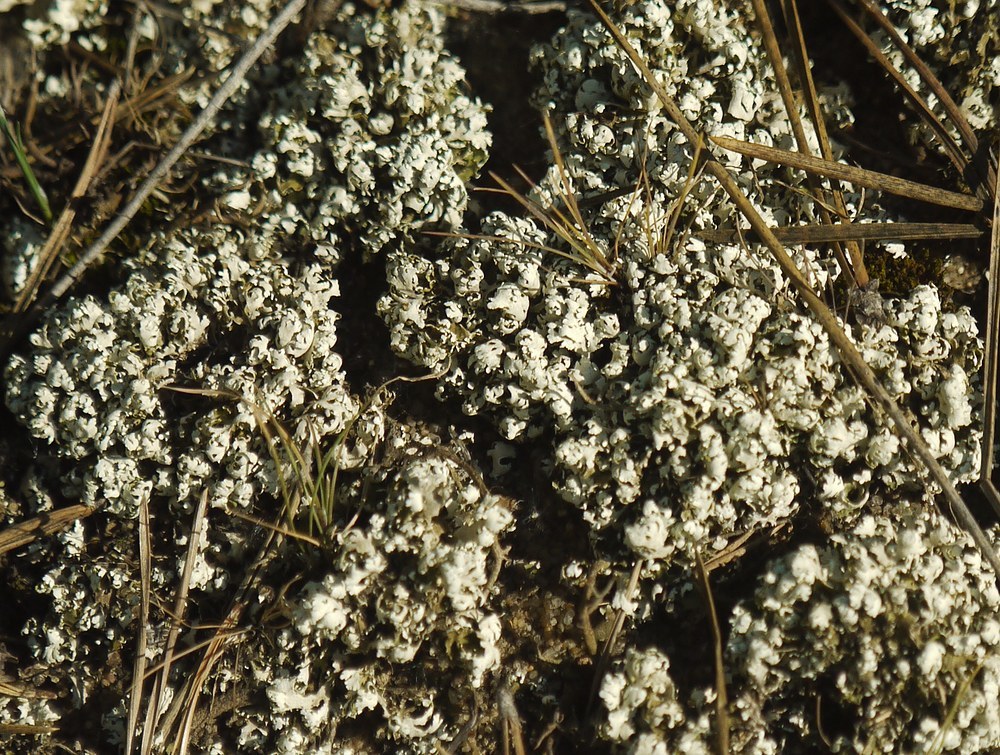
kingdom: Fungi
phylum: Ascomycota
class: Lecanoromycetes
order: Lecanorales
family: Cladoniaceae
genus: Cladonia
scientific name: Cladonia foliacea
